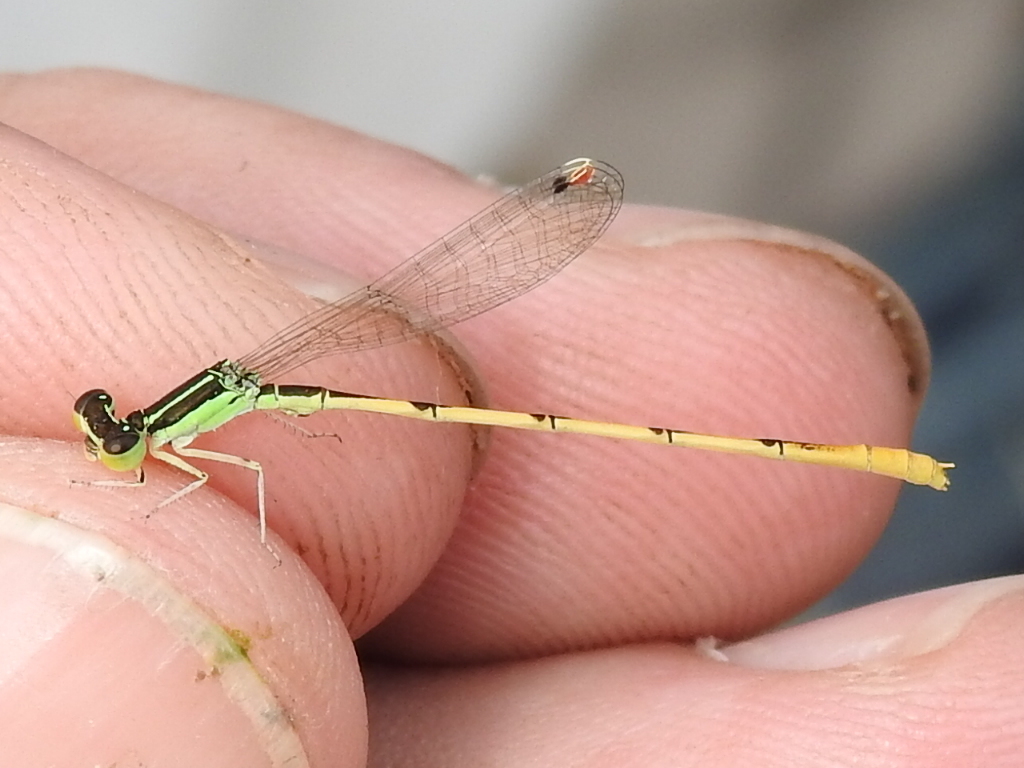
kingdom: Animalia
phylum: Arthropoda
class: Insecta
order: Odonata
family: Coenagrionidae
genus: Ischnura
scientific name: Ischnura hastata
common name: Citrine forktail
